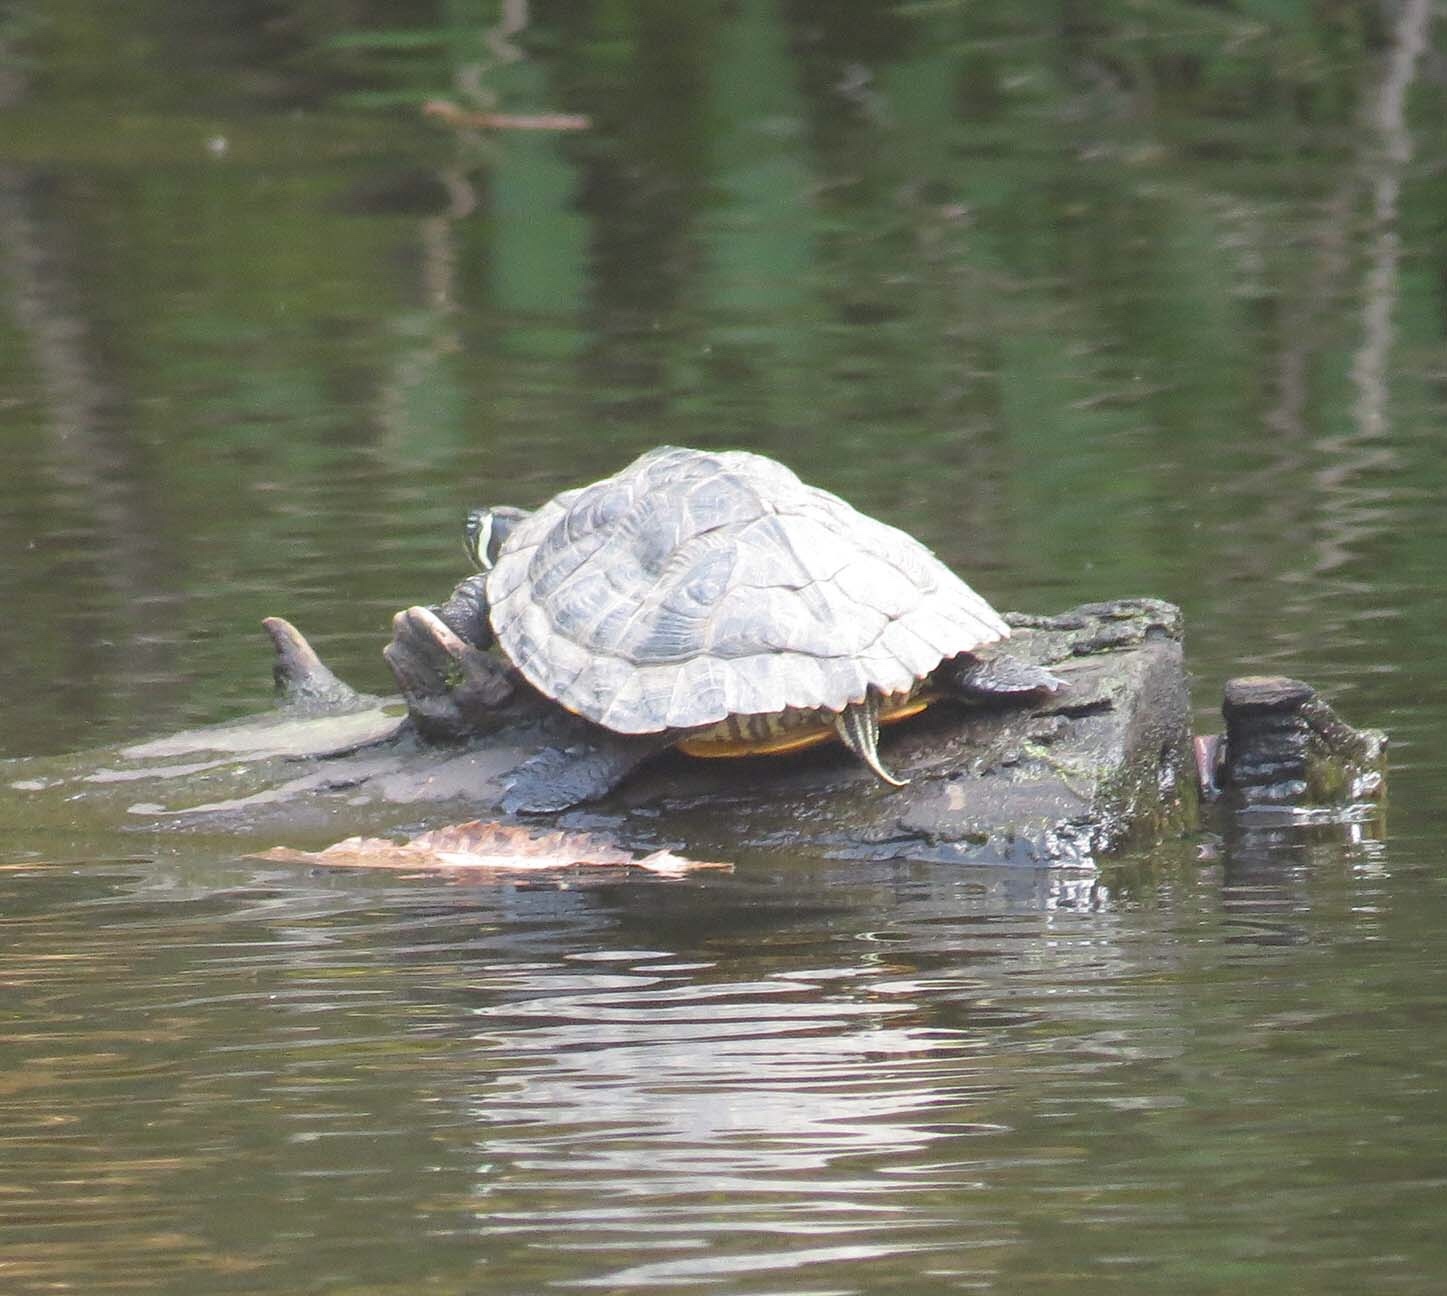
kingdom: Animalia
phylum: Chordata
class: Testudines
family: Emydidae
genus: Trachemys
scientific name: Trachemys scripta
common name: Slider
